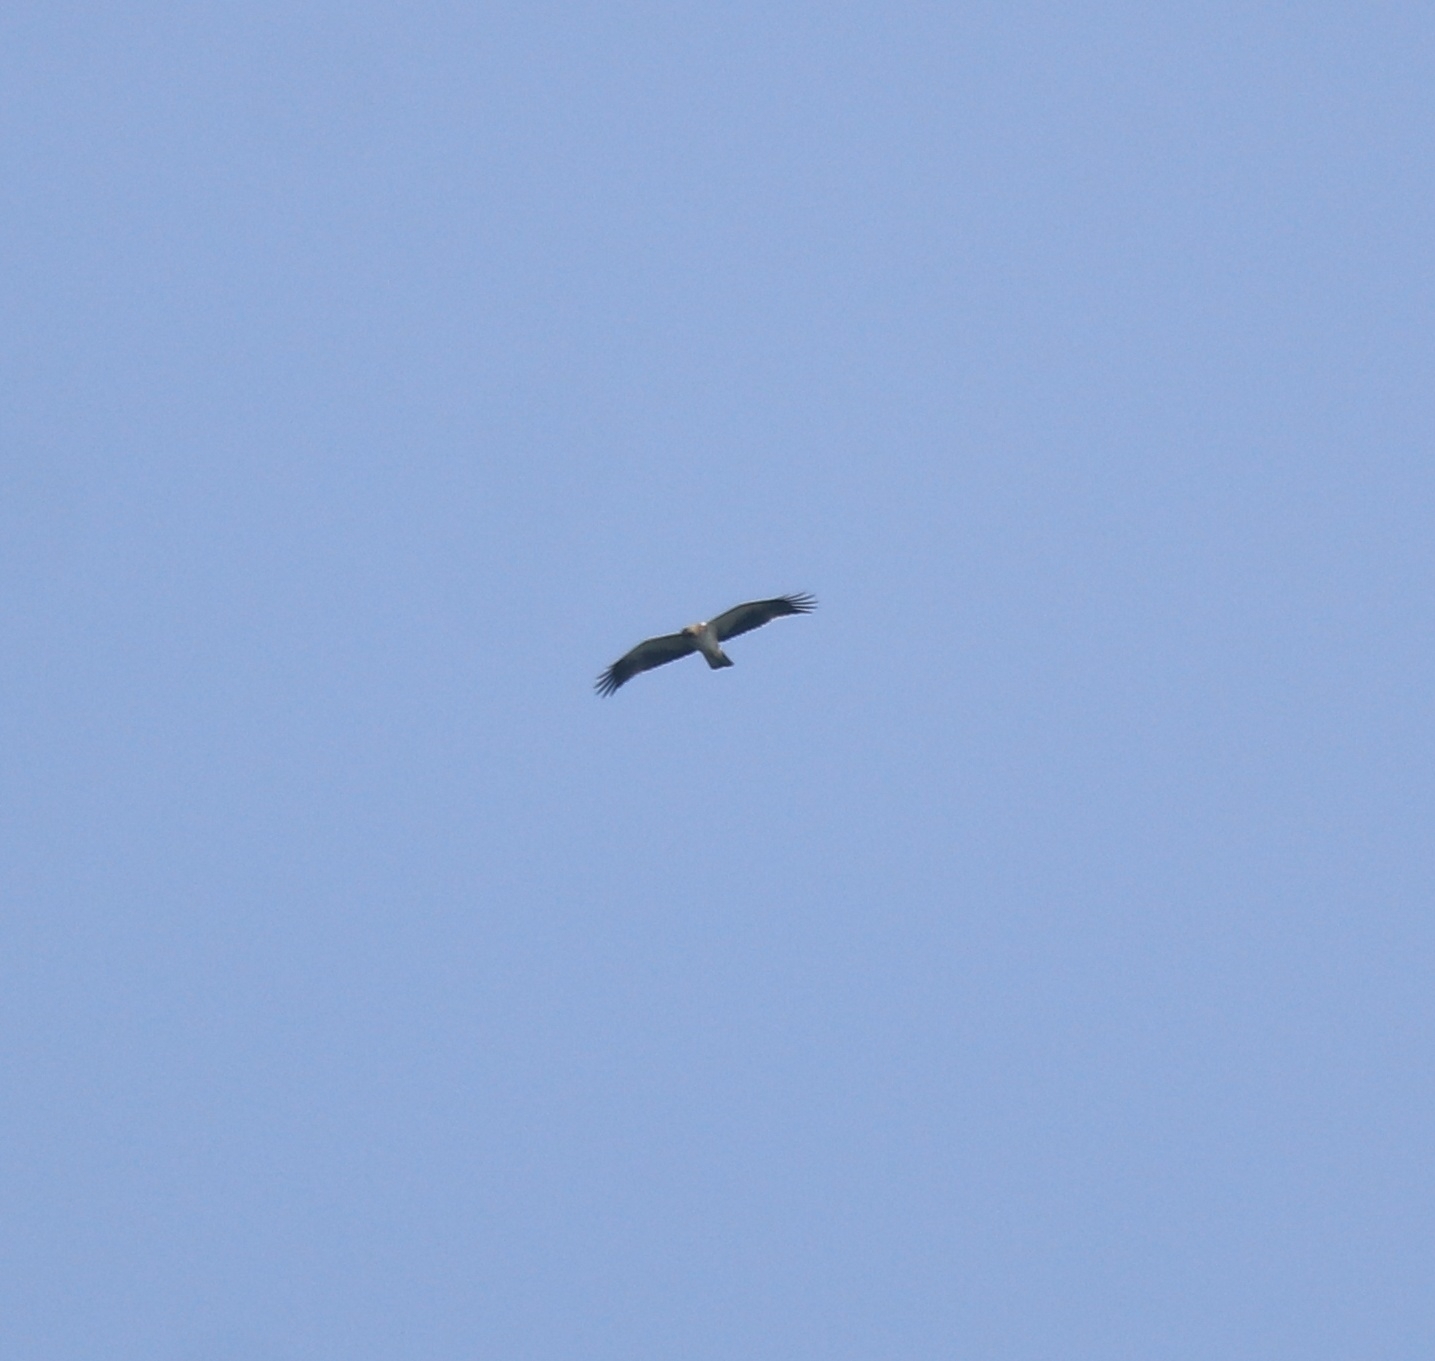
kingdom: Animalia
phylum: Chordata
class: Aves
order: Accipitriformes
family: Accipitridae
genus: Hieraaetus
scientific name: Hieraaetus pennatus
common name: Booted eagle
